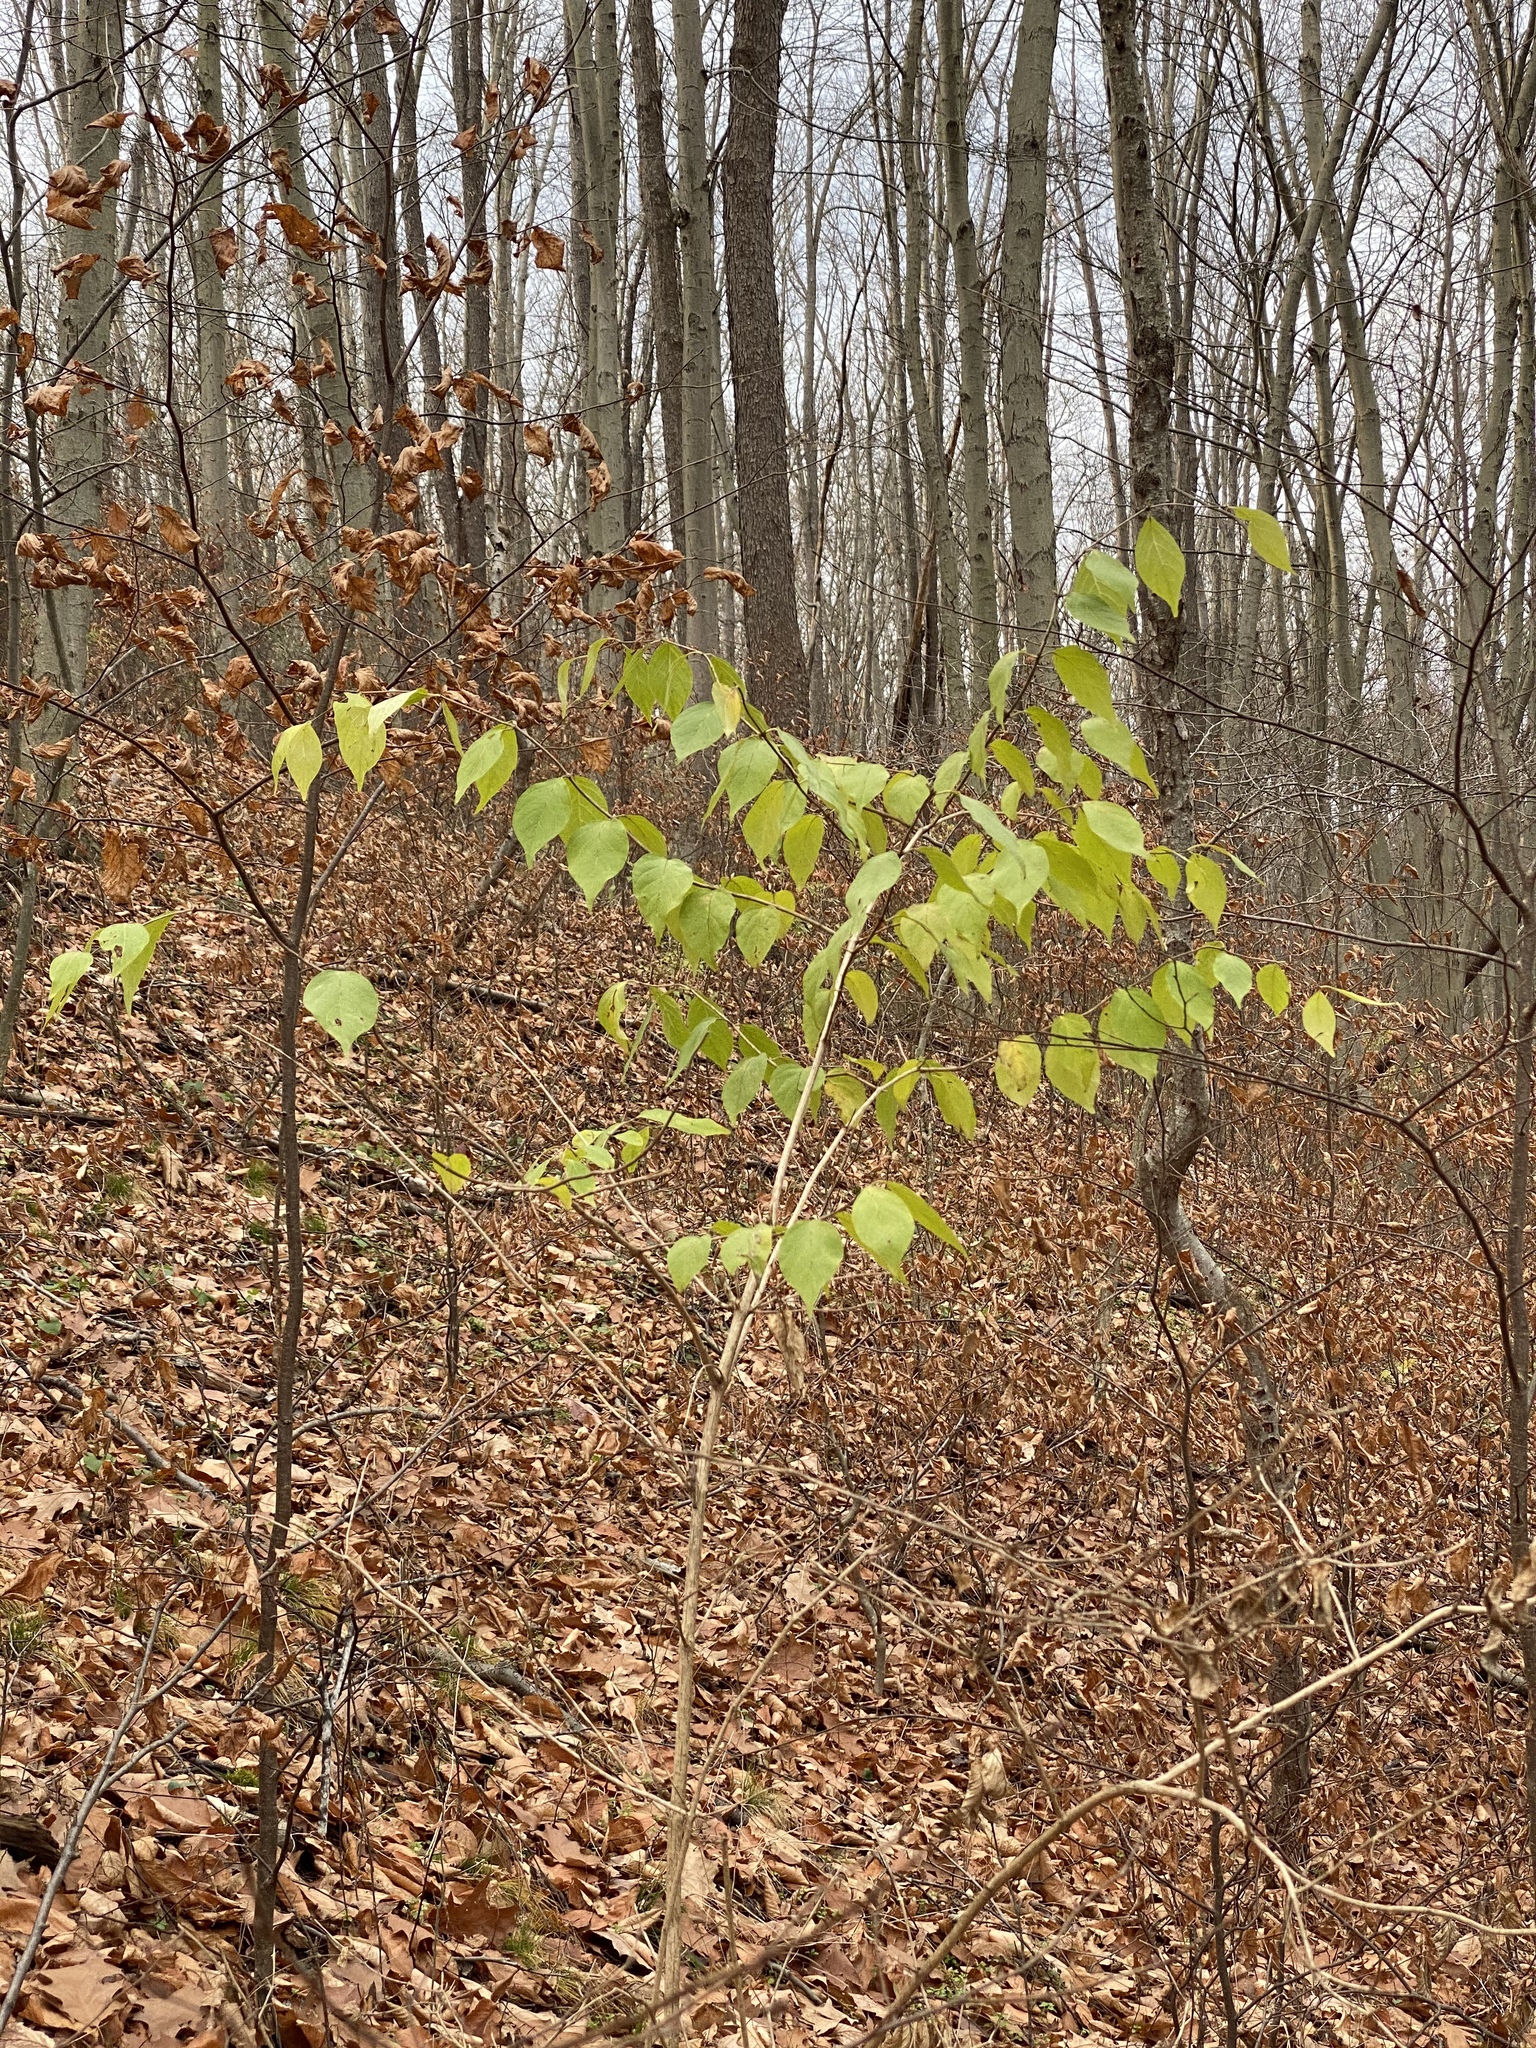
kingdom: Plantae
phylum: Tracheophyta
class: Magnoliopsida
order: Dipsacales
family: Caprifoliaceae
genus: Lonicera
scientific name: Lonicera maackii
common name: Amur honeysuckle
